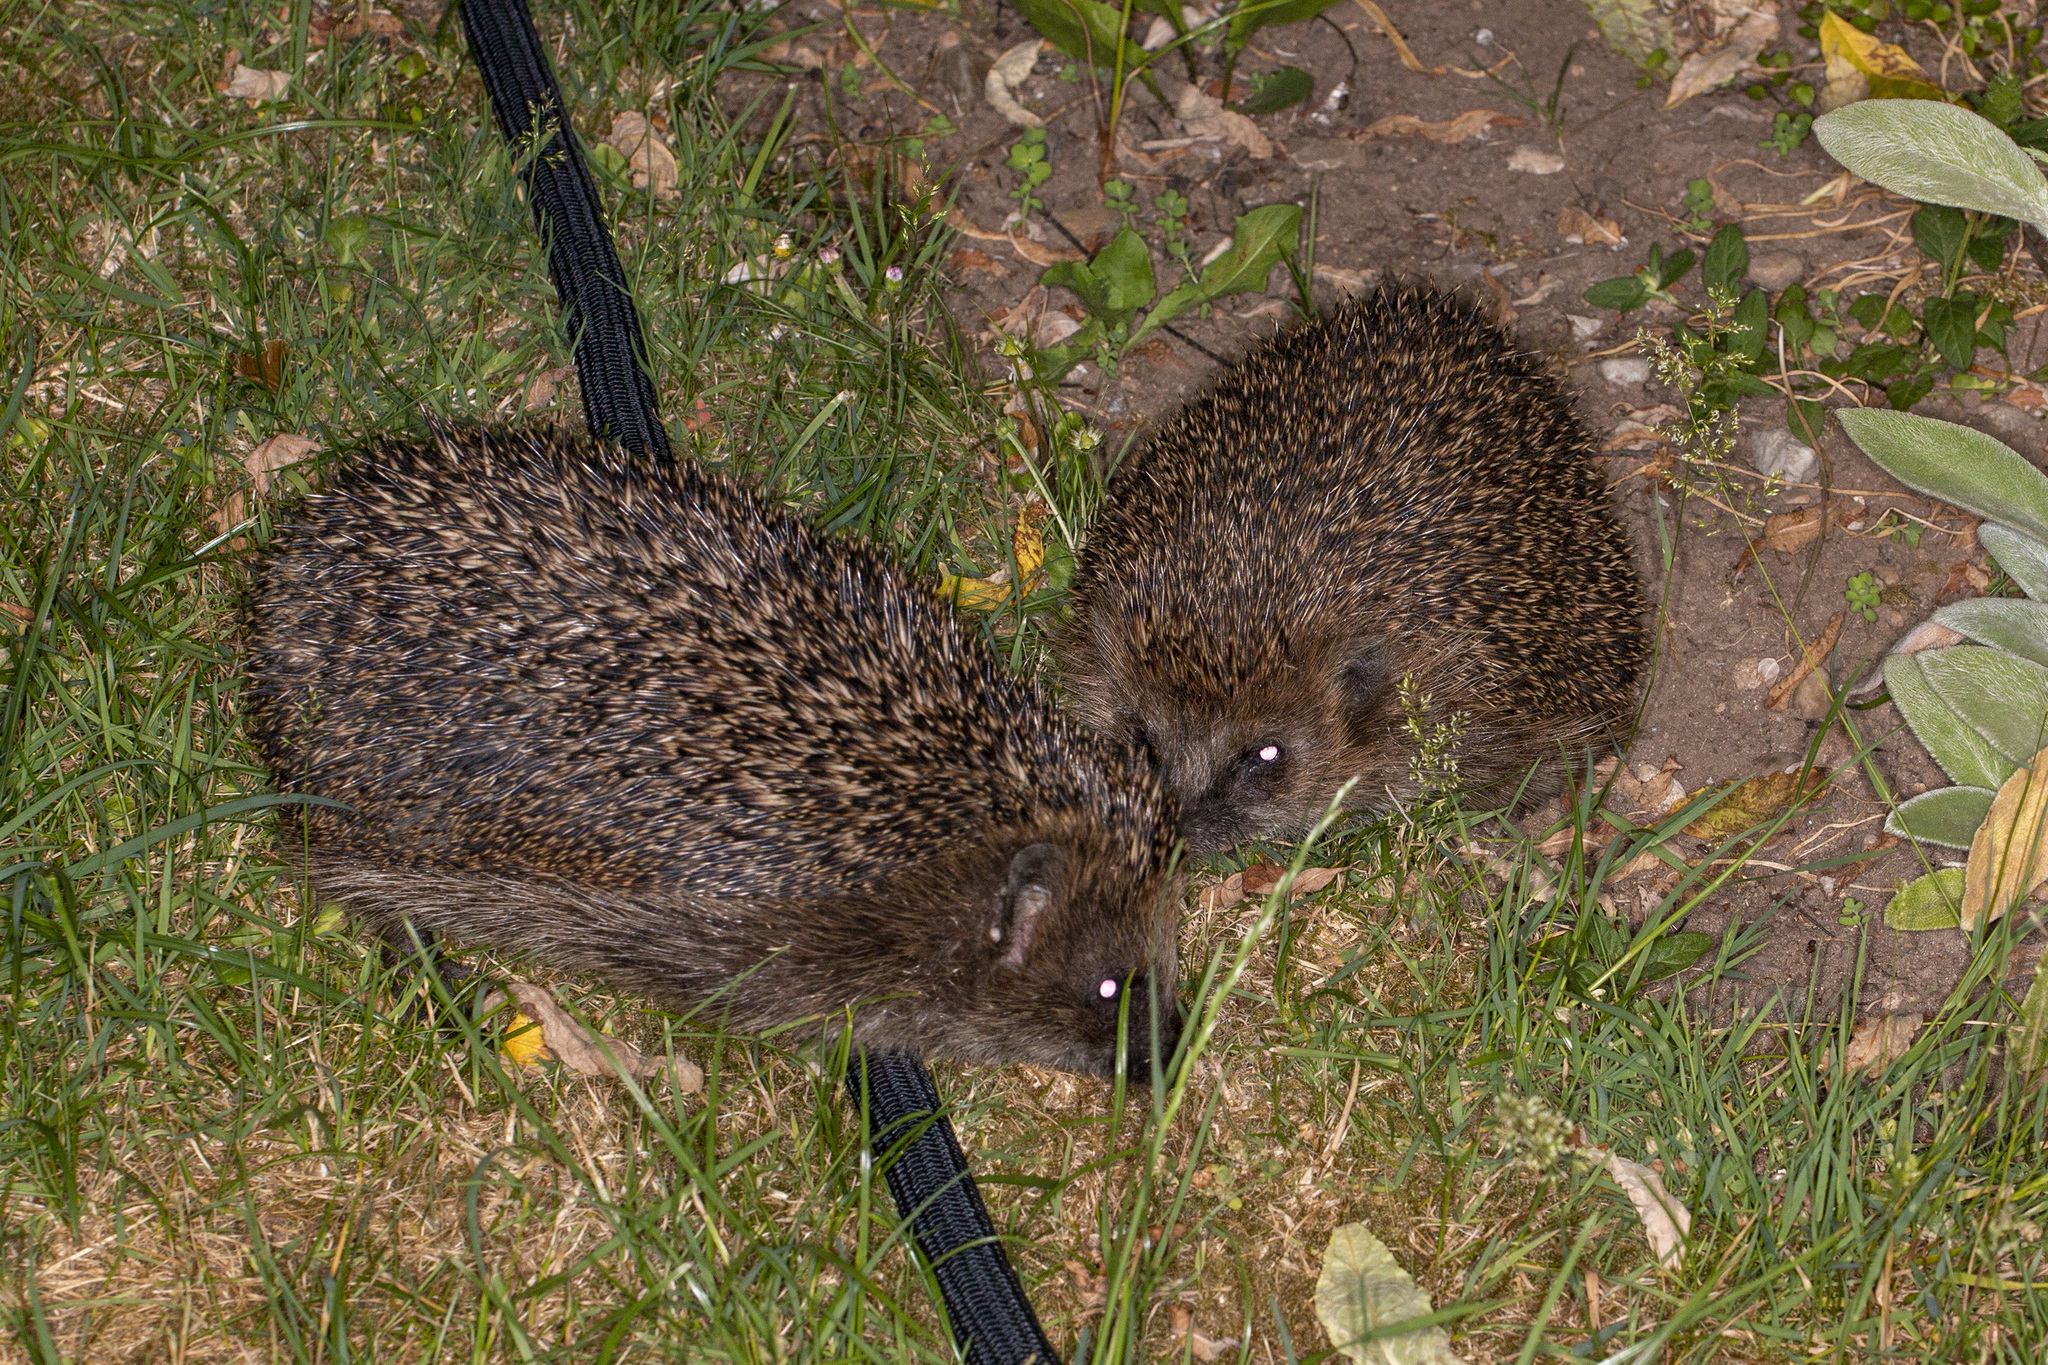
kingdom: Animalia
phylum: Chordata
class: Mammalia
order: Erinaceomorpha
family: Erinaceidae
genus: Erinaceus
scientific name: Erinaceus europaeus
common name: West european hedgehog
